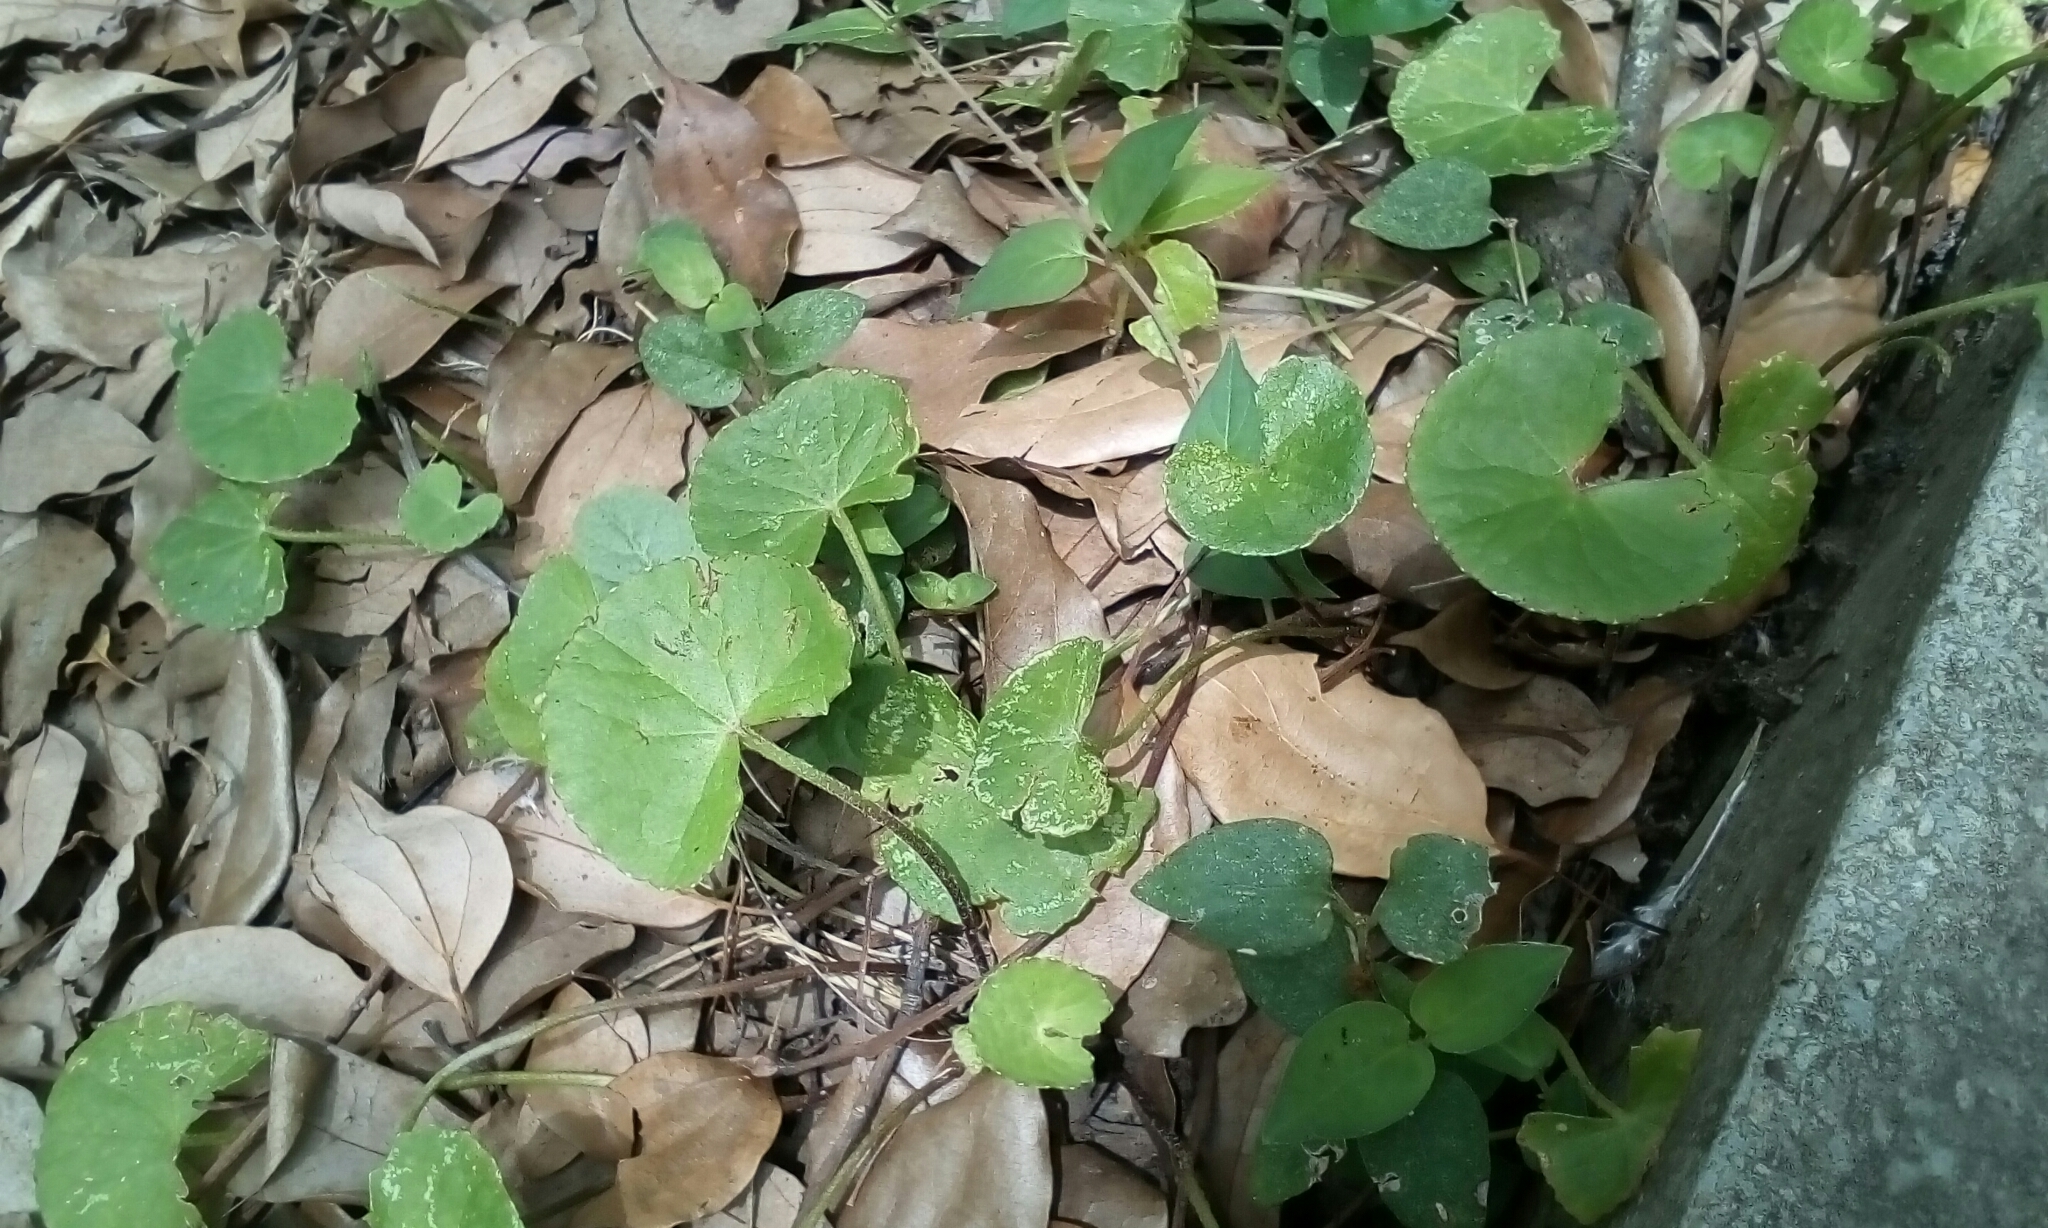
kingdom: Plantae
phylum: Tracheophyta
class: Magnoliopsida
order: Apiales
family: Apiaceae
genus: Centella
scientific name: Centella asiatica
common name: Spadeleaf
